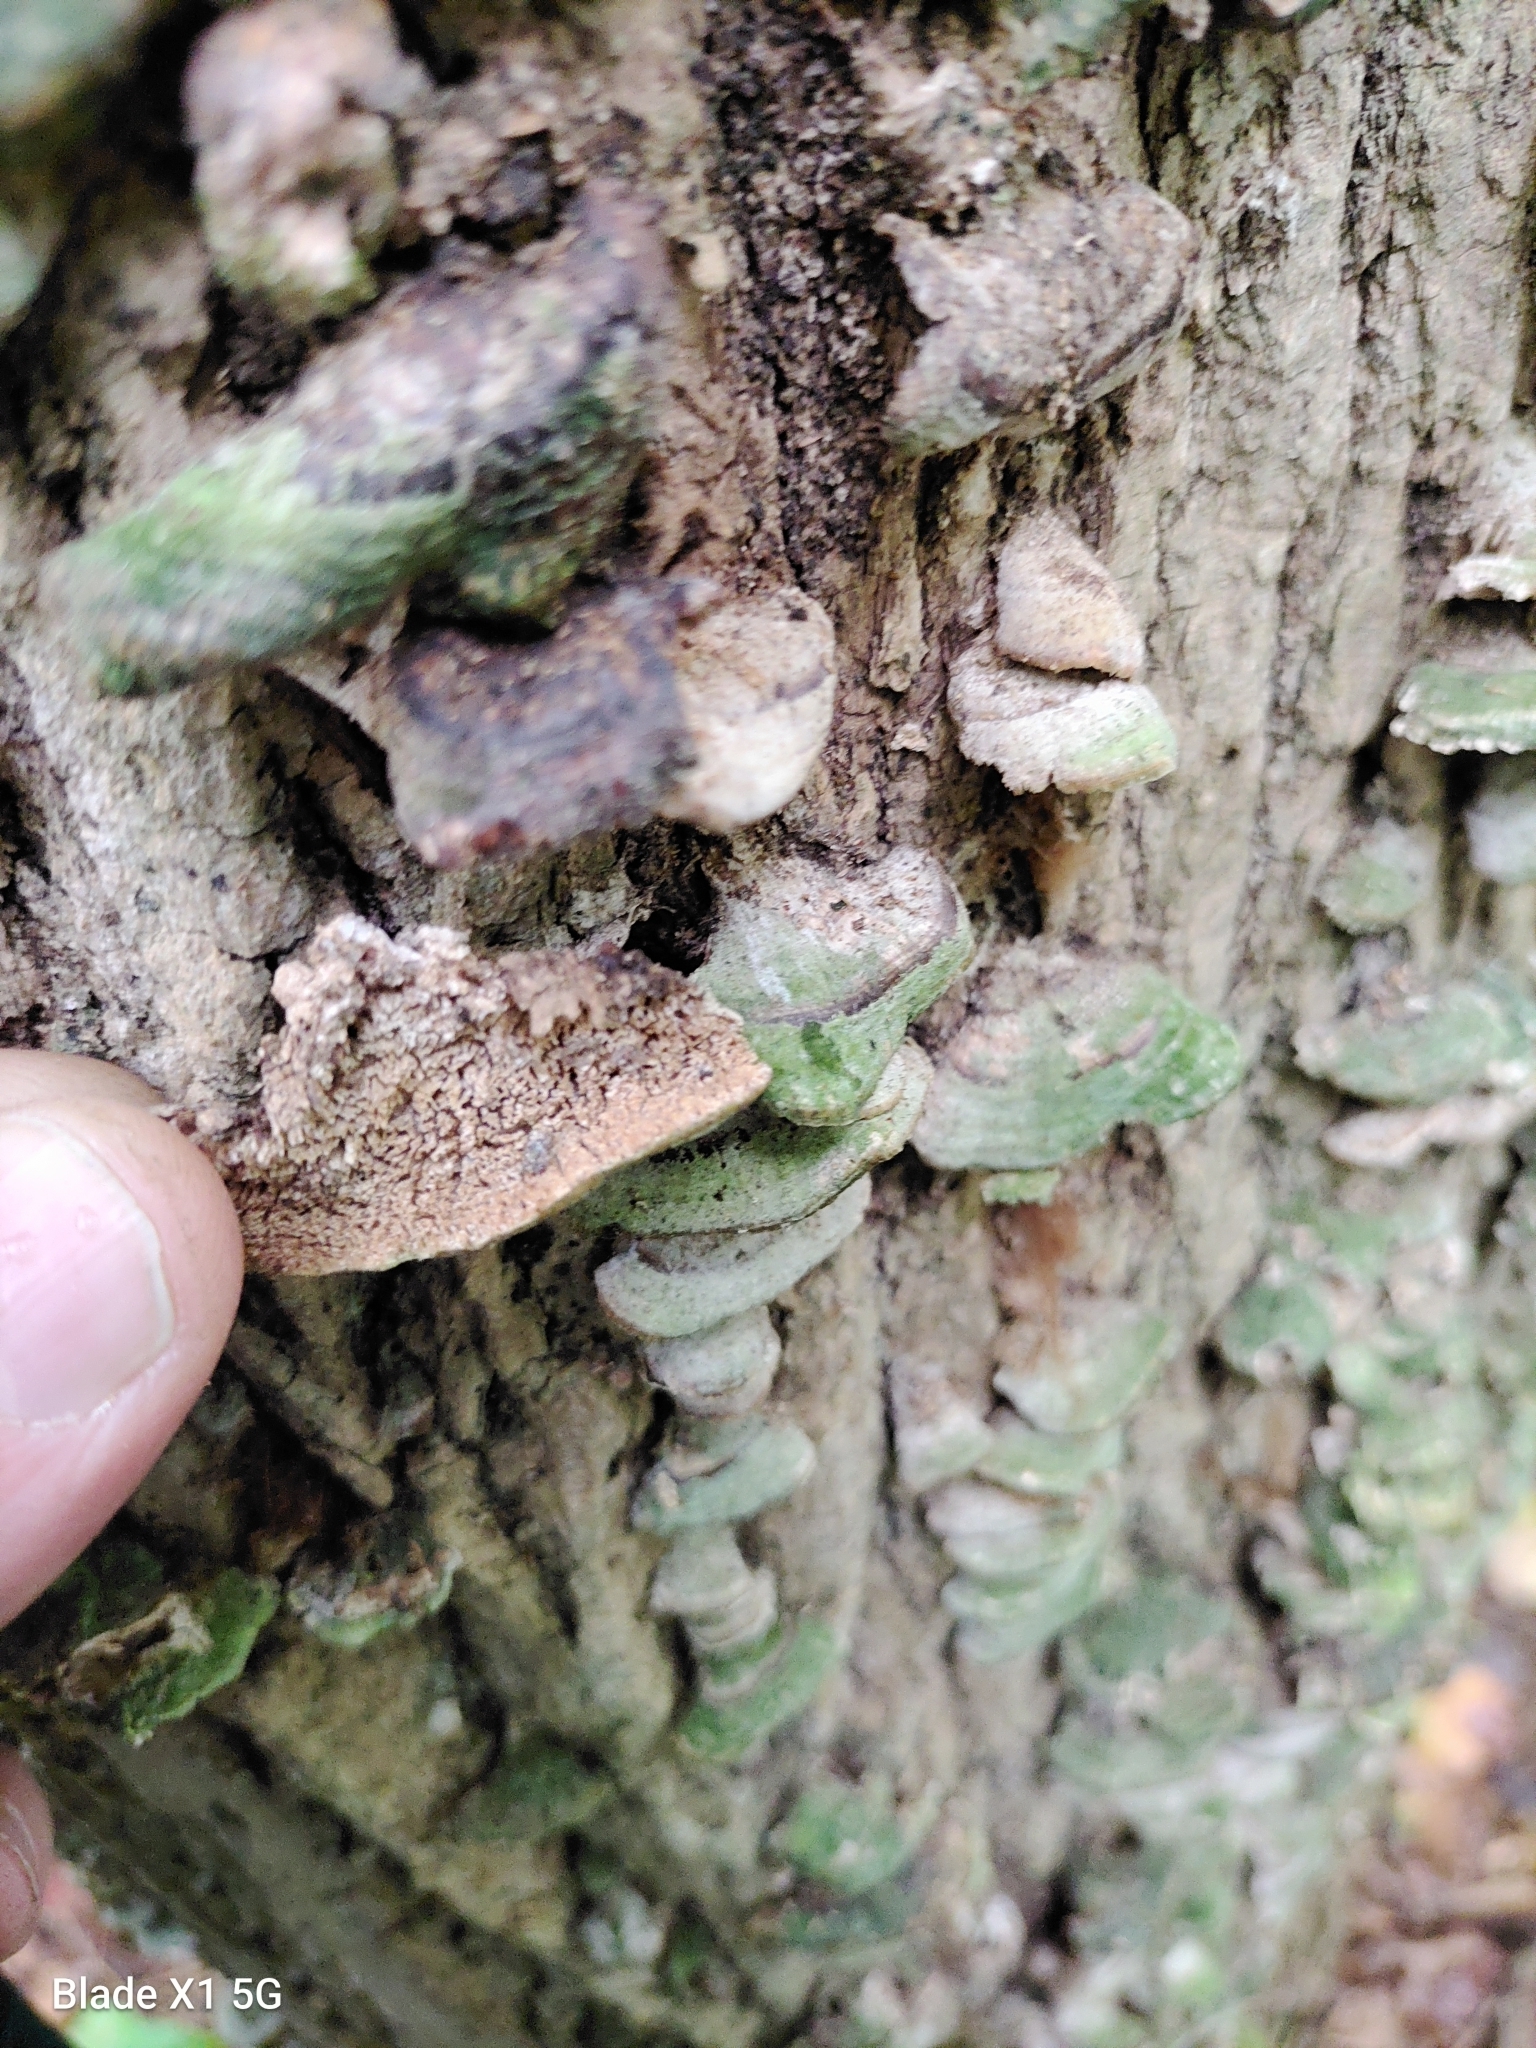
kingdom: Fungi
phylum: Basidiomycota
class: Agaricomycetes
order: Hymenochaetales
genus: Trichaptum
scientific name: Trichaptum biforme
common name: Violet-toothed polypore
